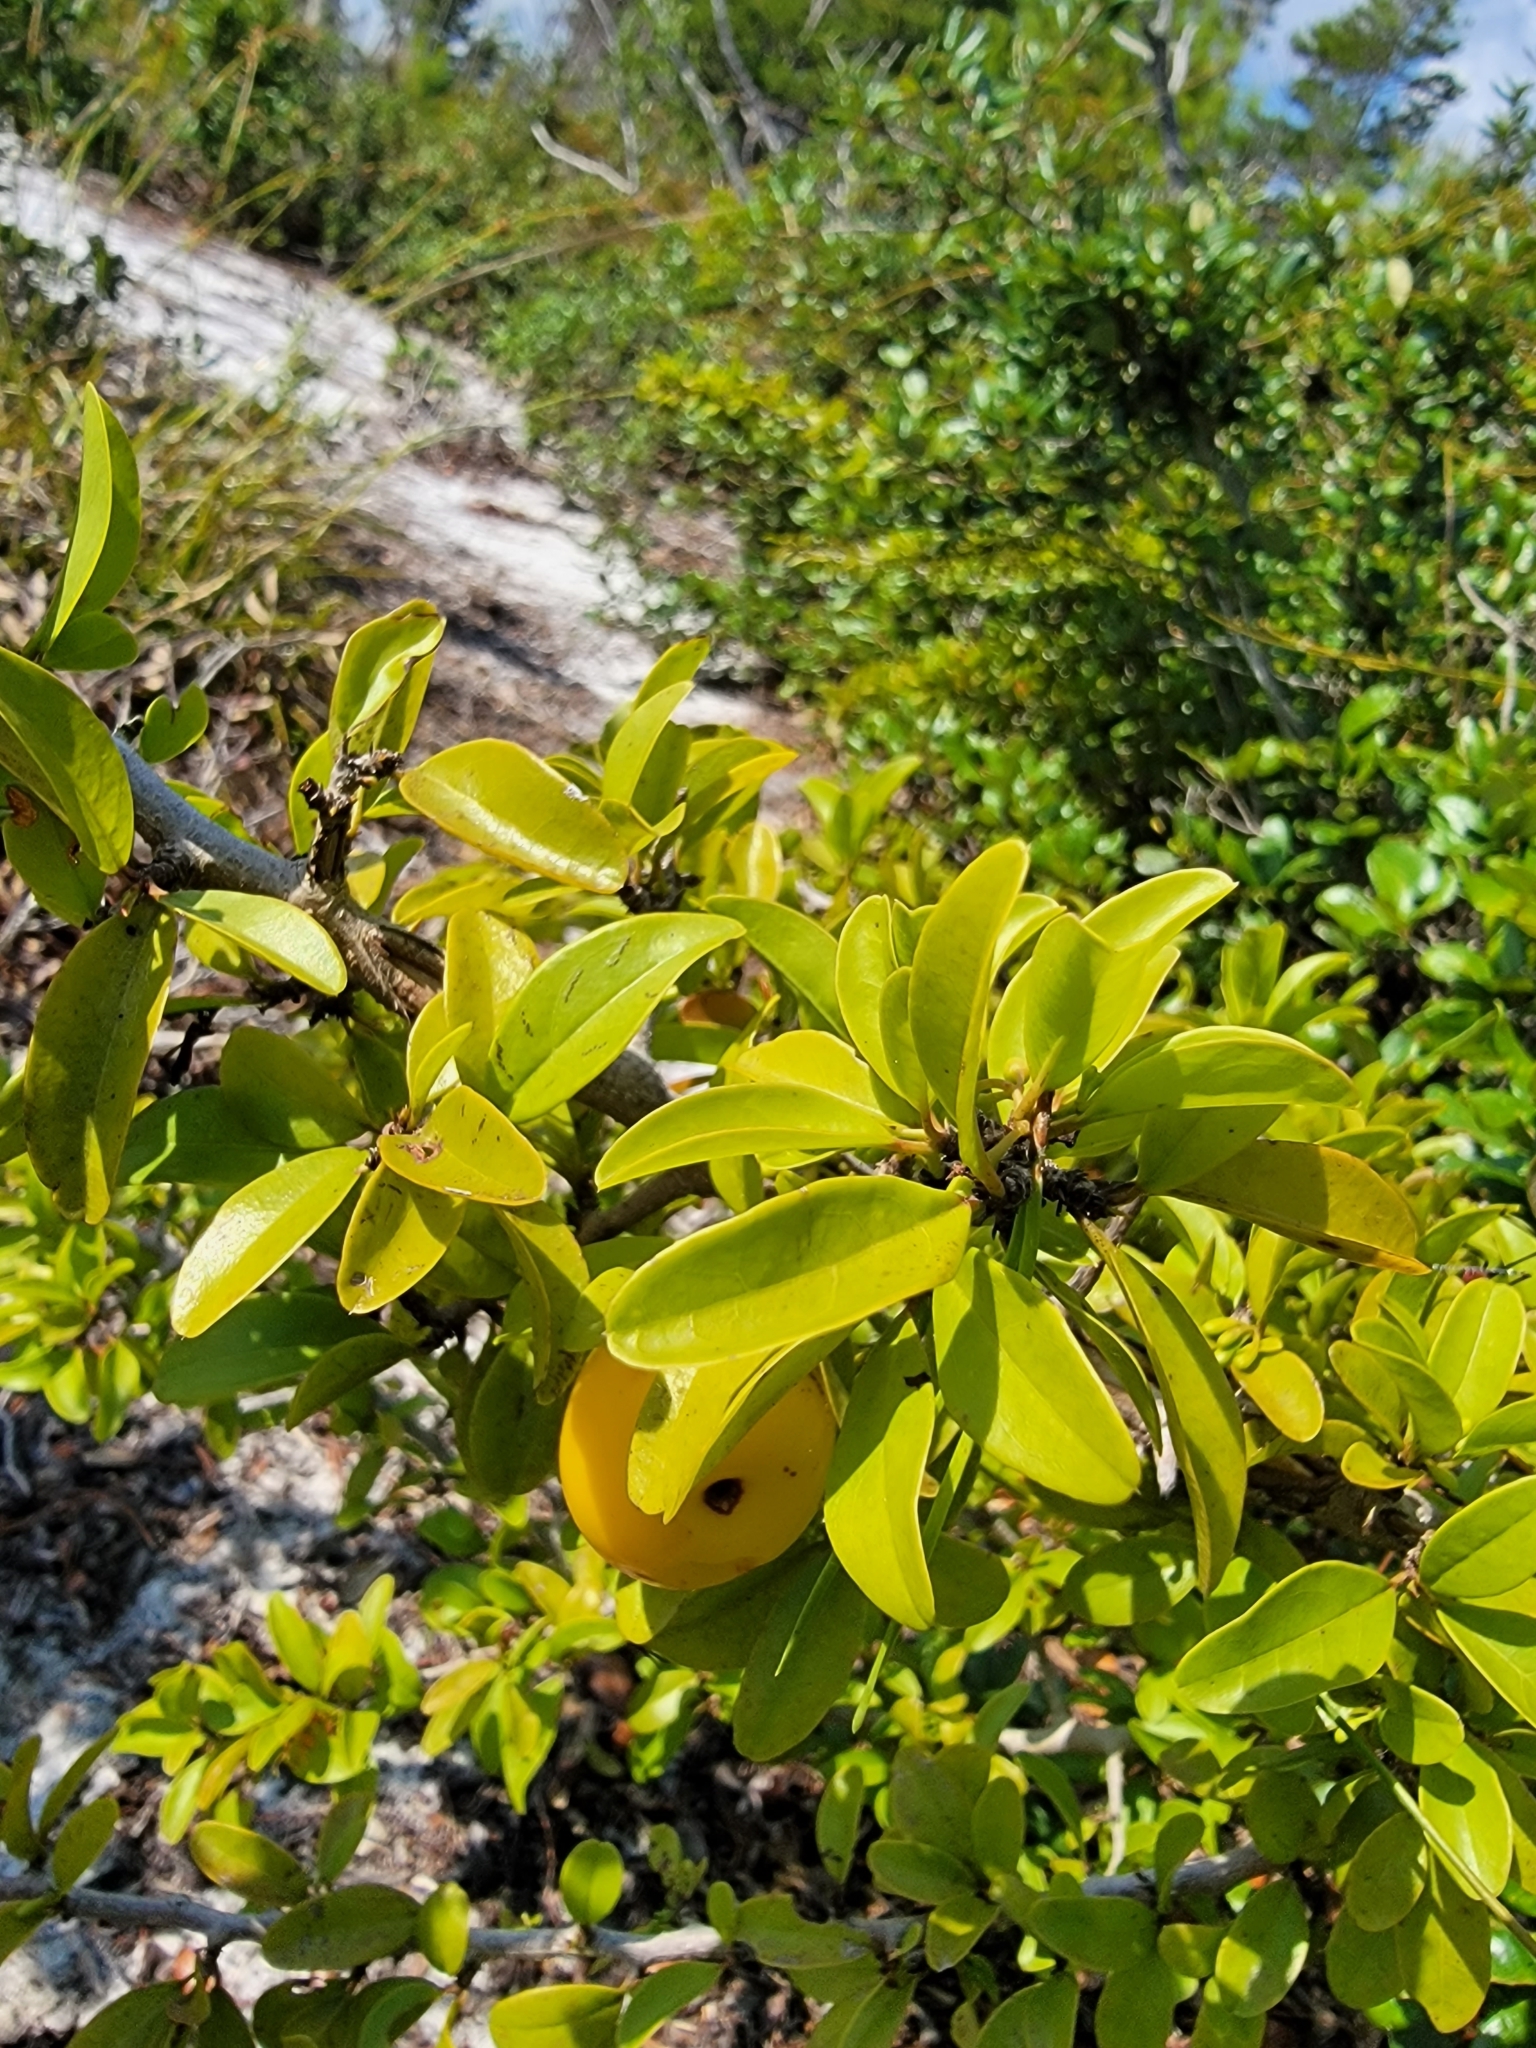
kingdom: Plantae
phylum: Tracheophyta
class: Magnoliopsida
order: Santalales
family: Ximeniaceae
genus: Ximenia
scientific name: Ximenia americana
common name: Tallowwood
